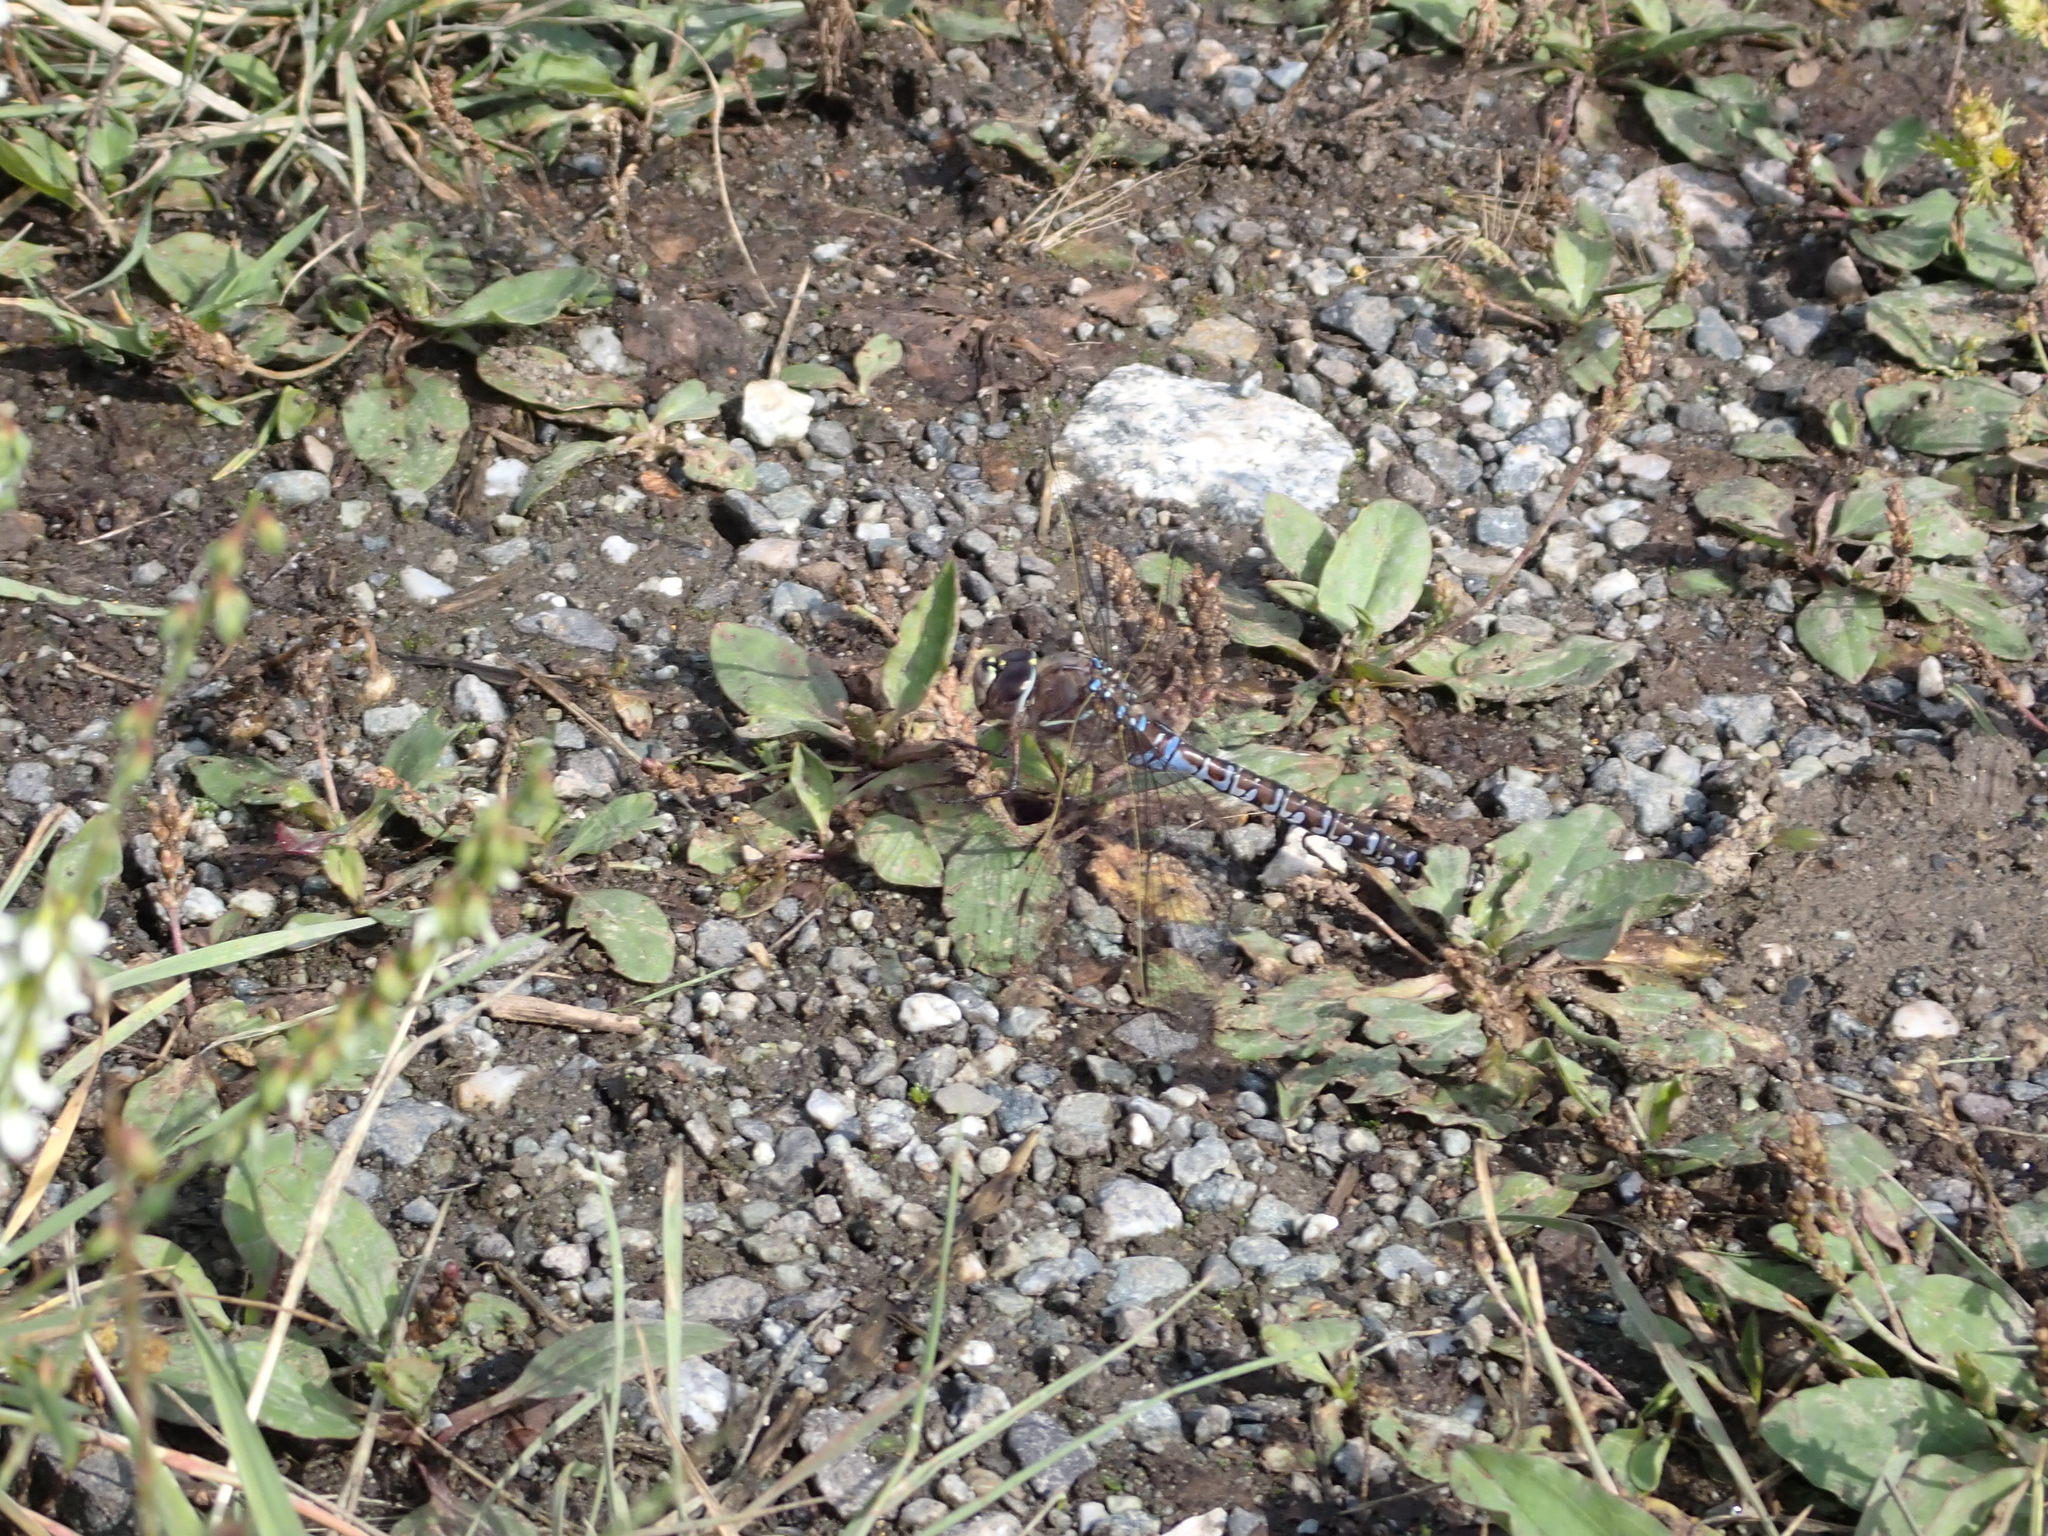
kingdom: Animalia
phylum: Arthropoda
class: Insecta
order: Odonata
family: Aeshnidae
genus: Aeshna
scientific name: Aeshna interrupta
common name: Variable darner
